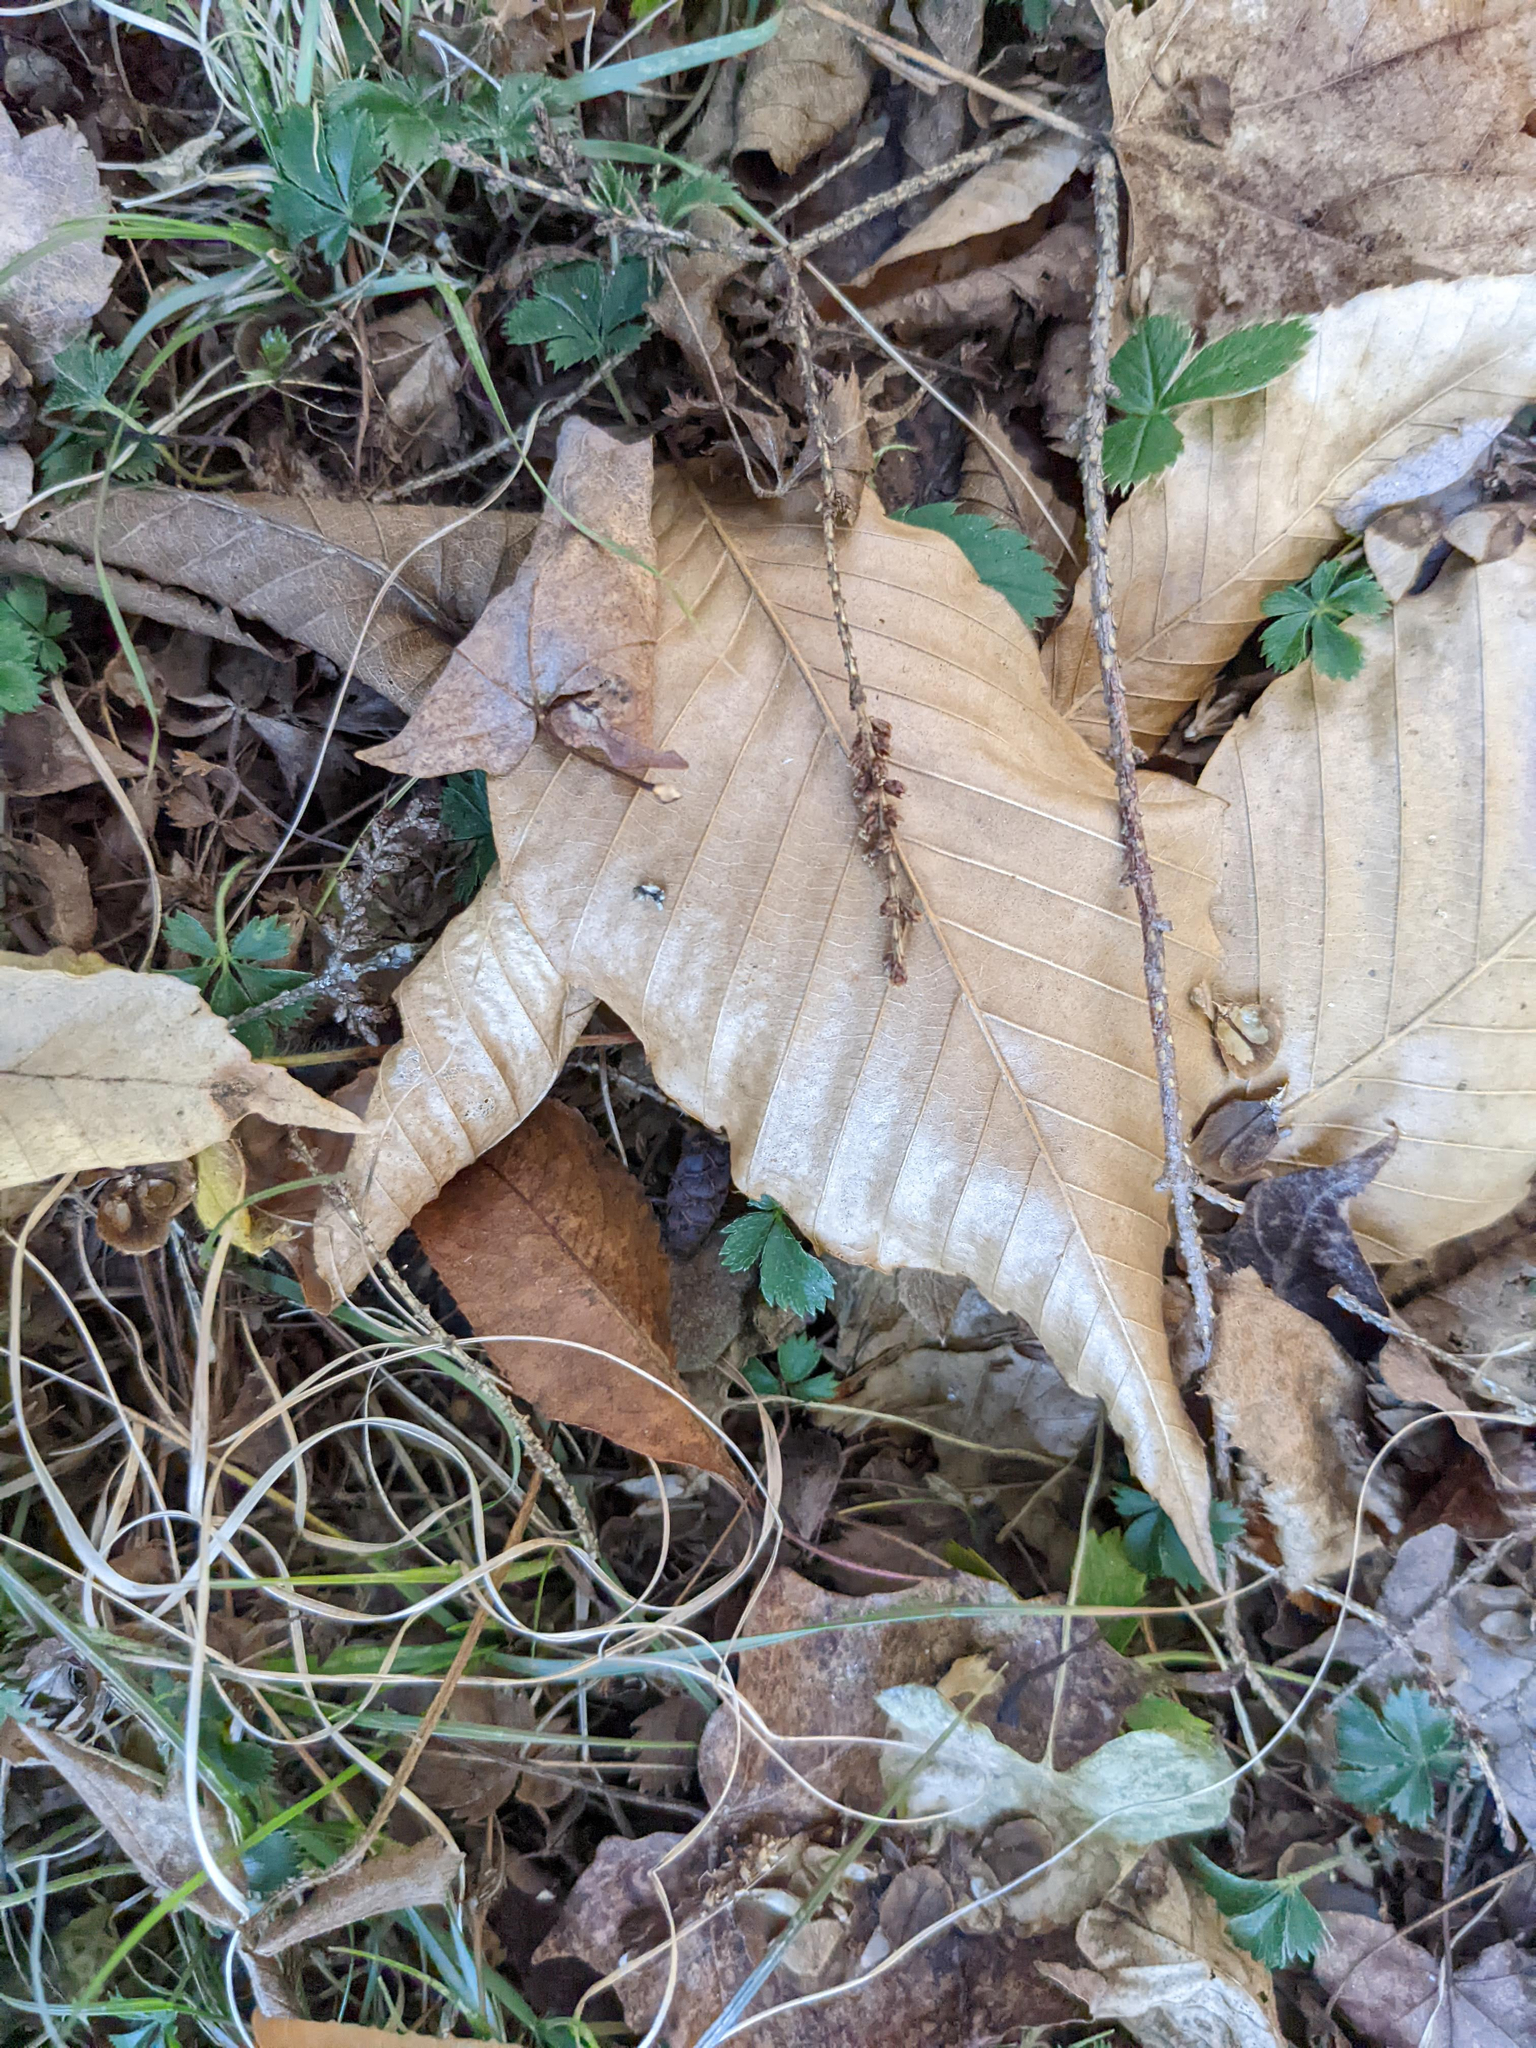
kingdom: Plantae
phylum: Tracheophyta
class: Magnoliopsida
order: Fagales
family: Fagaceae
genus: Fagus
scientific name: Fagus grandifolia
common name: American beech
